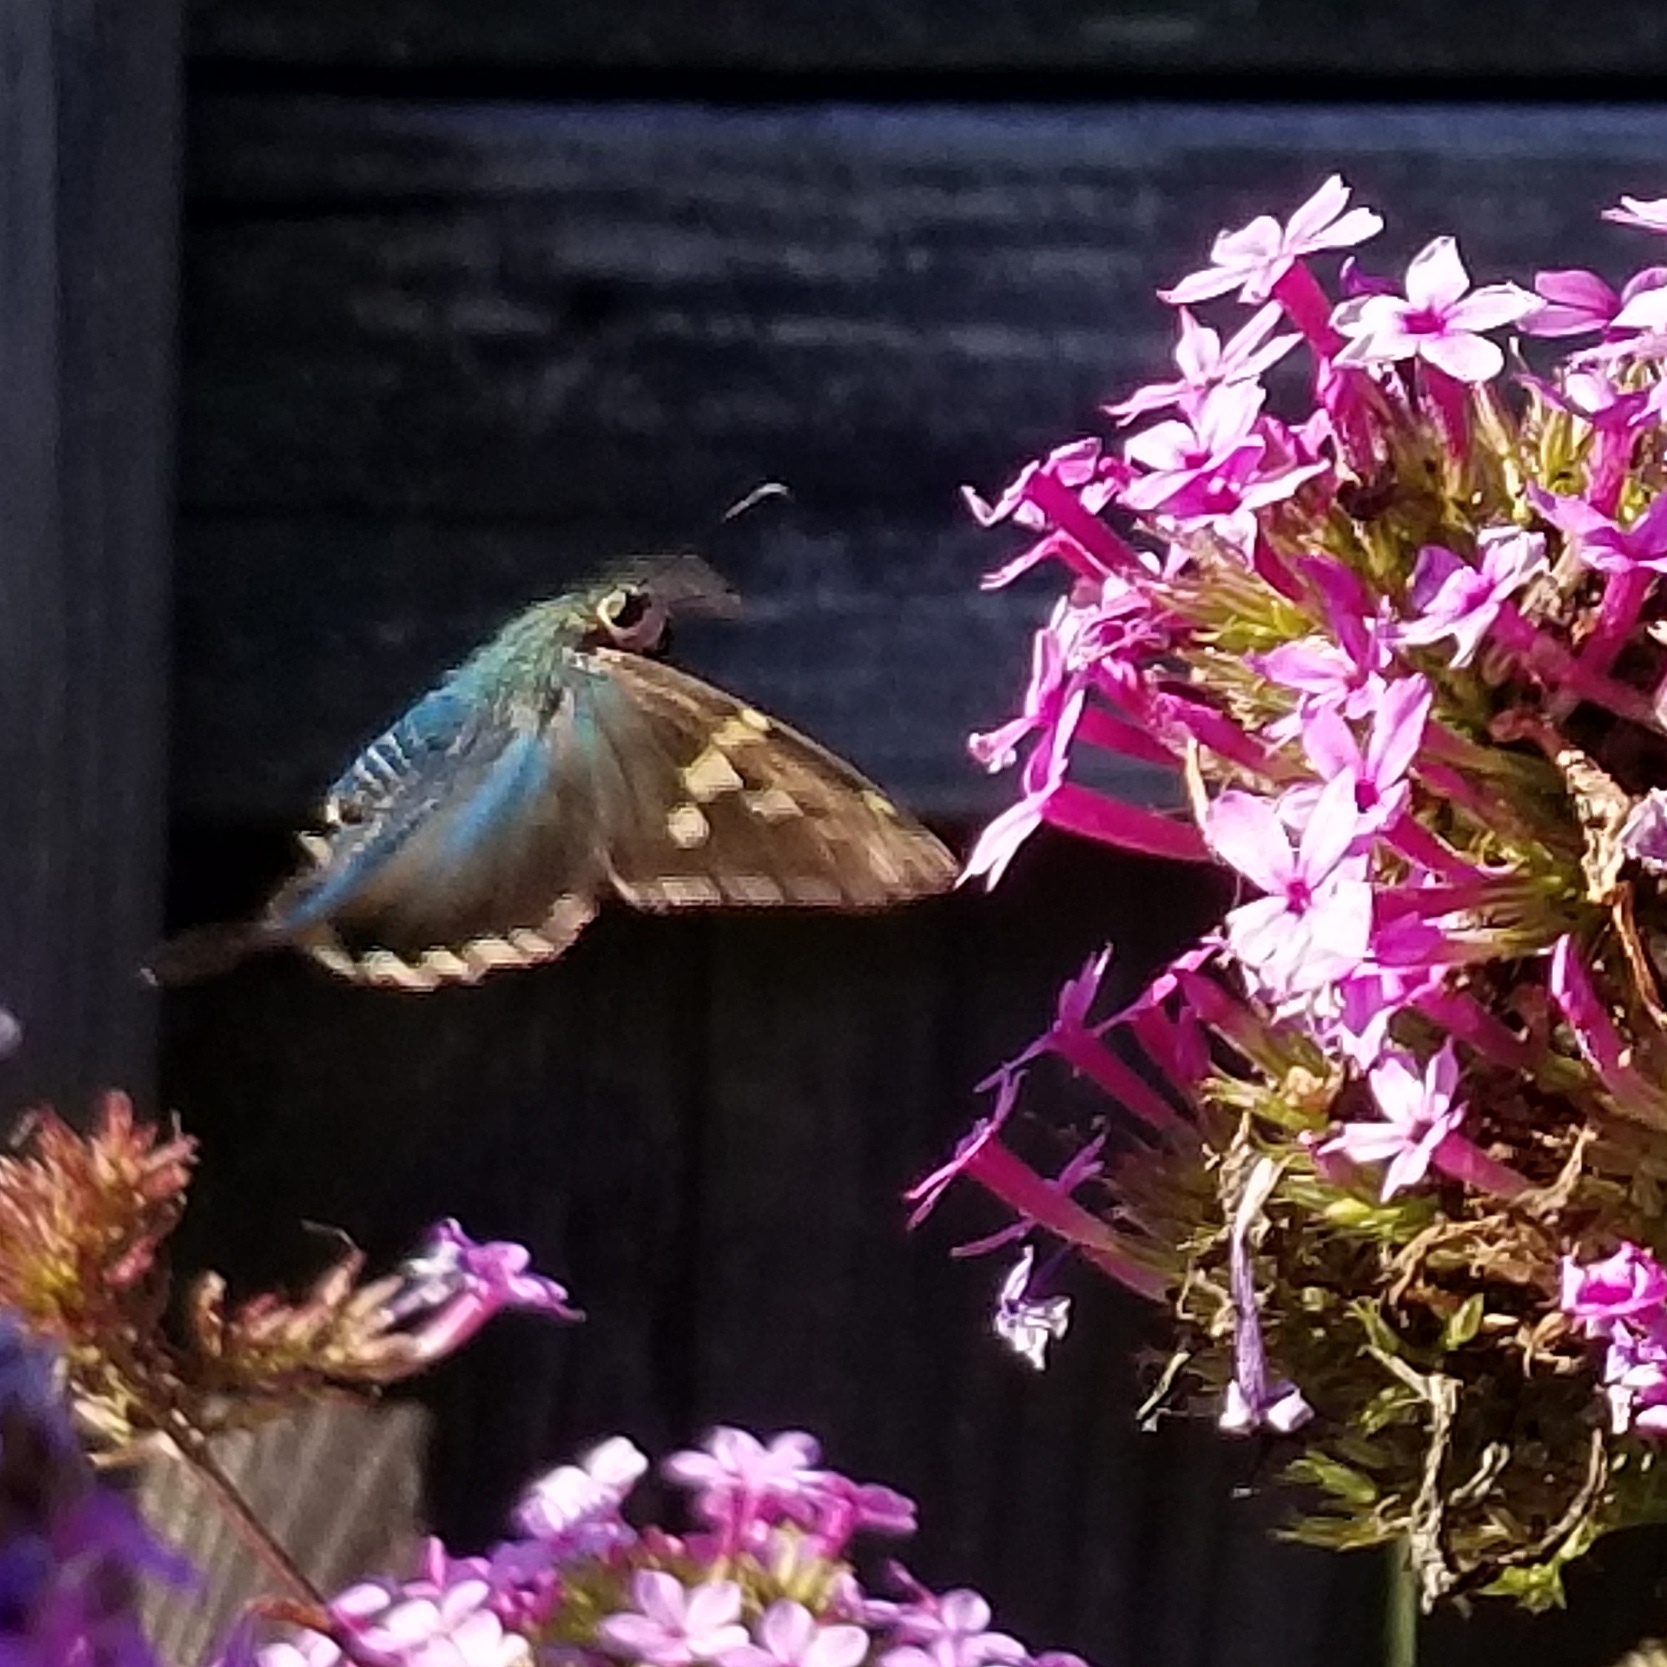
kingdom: Animalia
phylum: Arthropoda
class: Insecta
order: Lepidoptera
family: Hesperiidae
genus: Urbanus
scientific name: Urbanus proteus
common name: Long-tailed skipper
